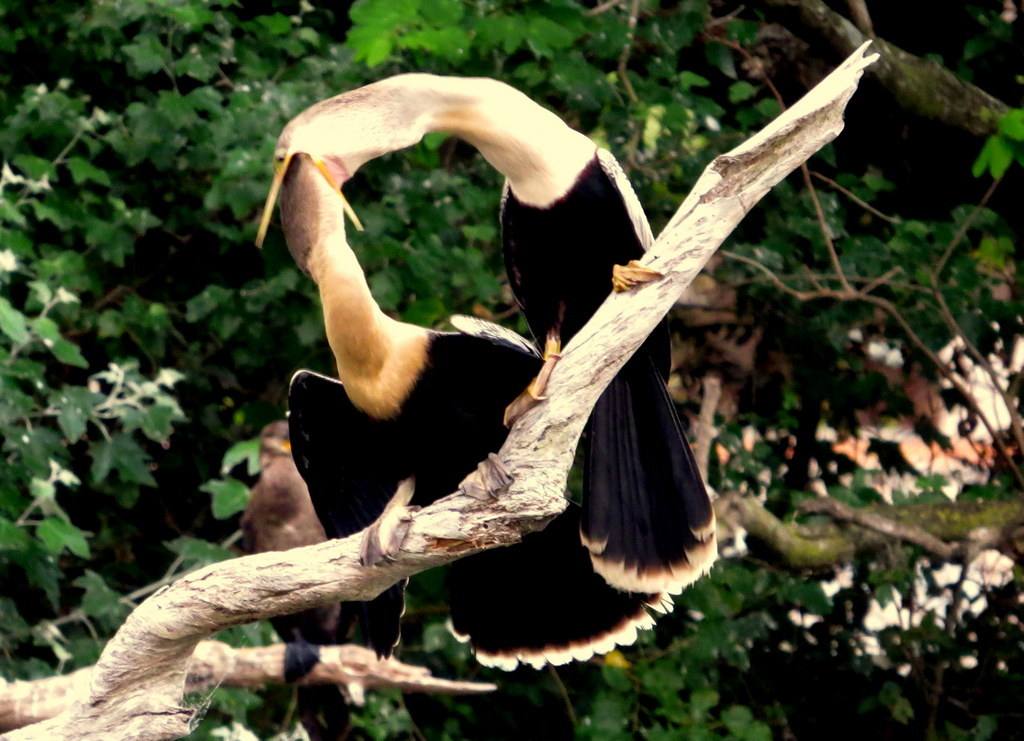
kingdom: Animalia
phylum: Chordata
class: Aves
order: Suliformes
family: Anhingidae
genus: Anhinga
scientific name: Anhinga anhinga
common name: Anhinga
